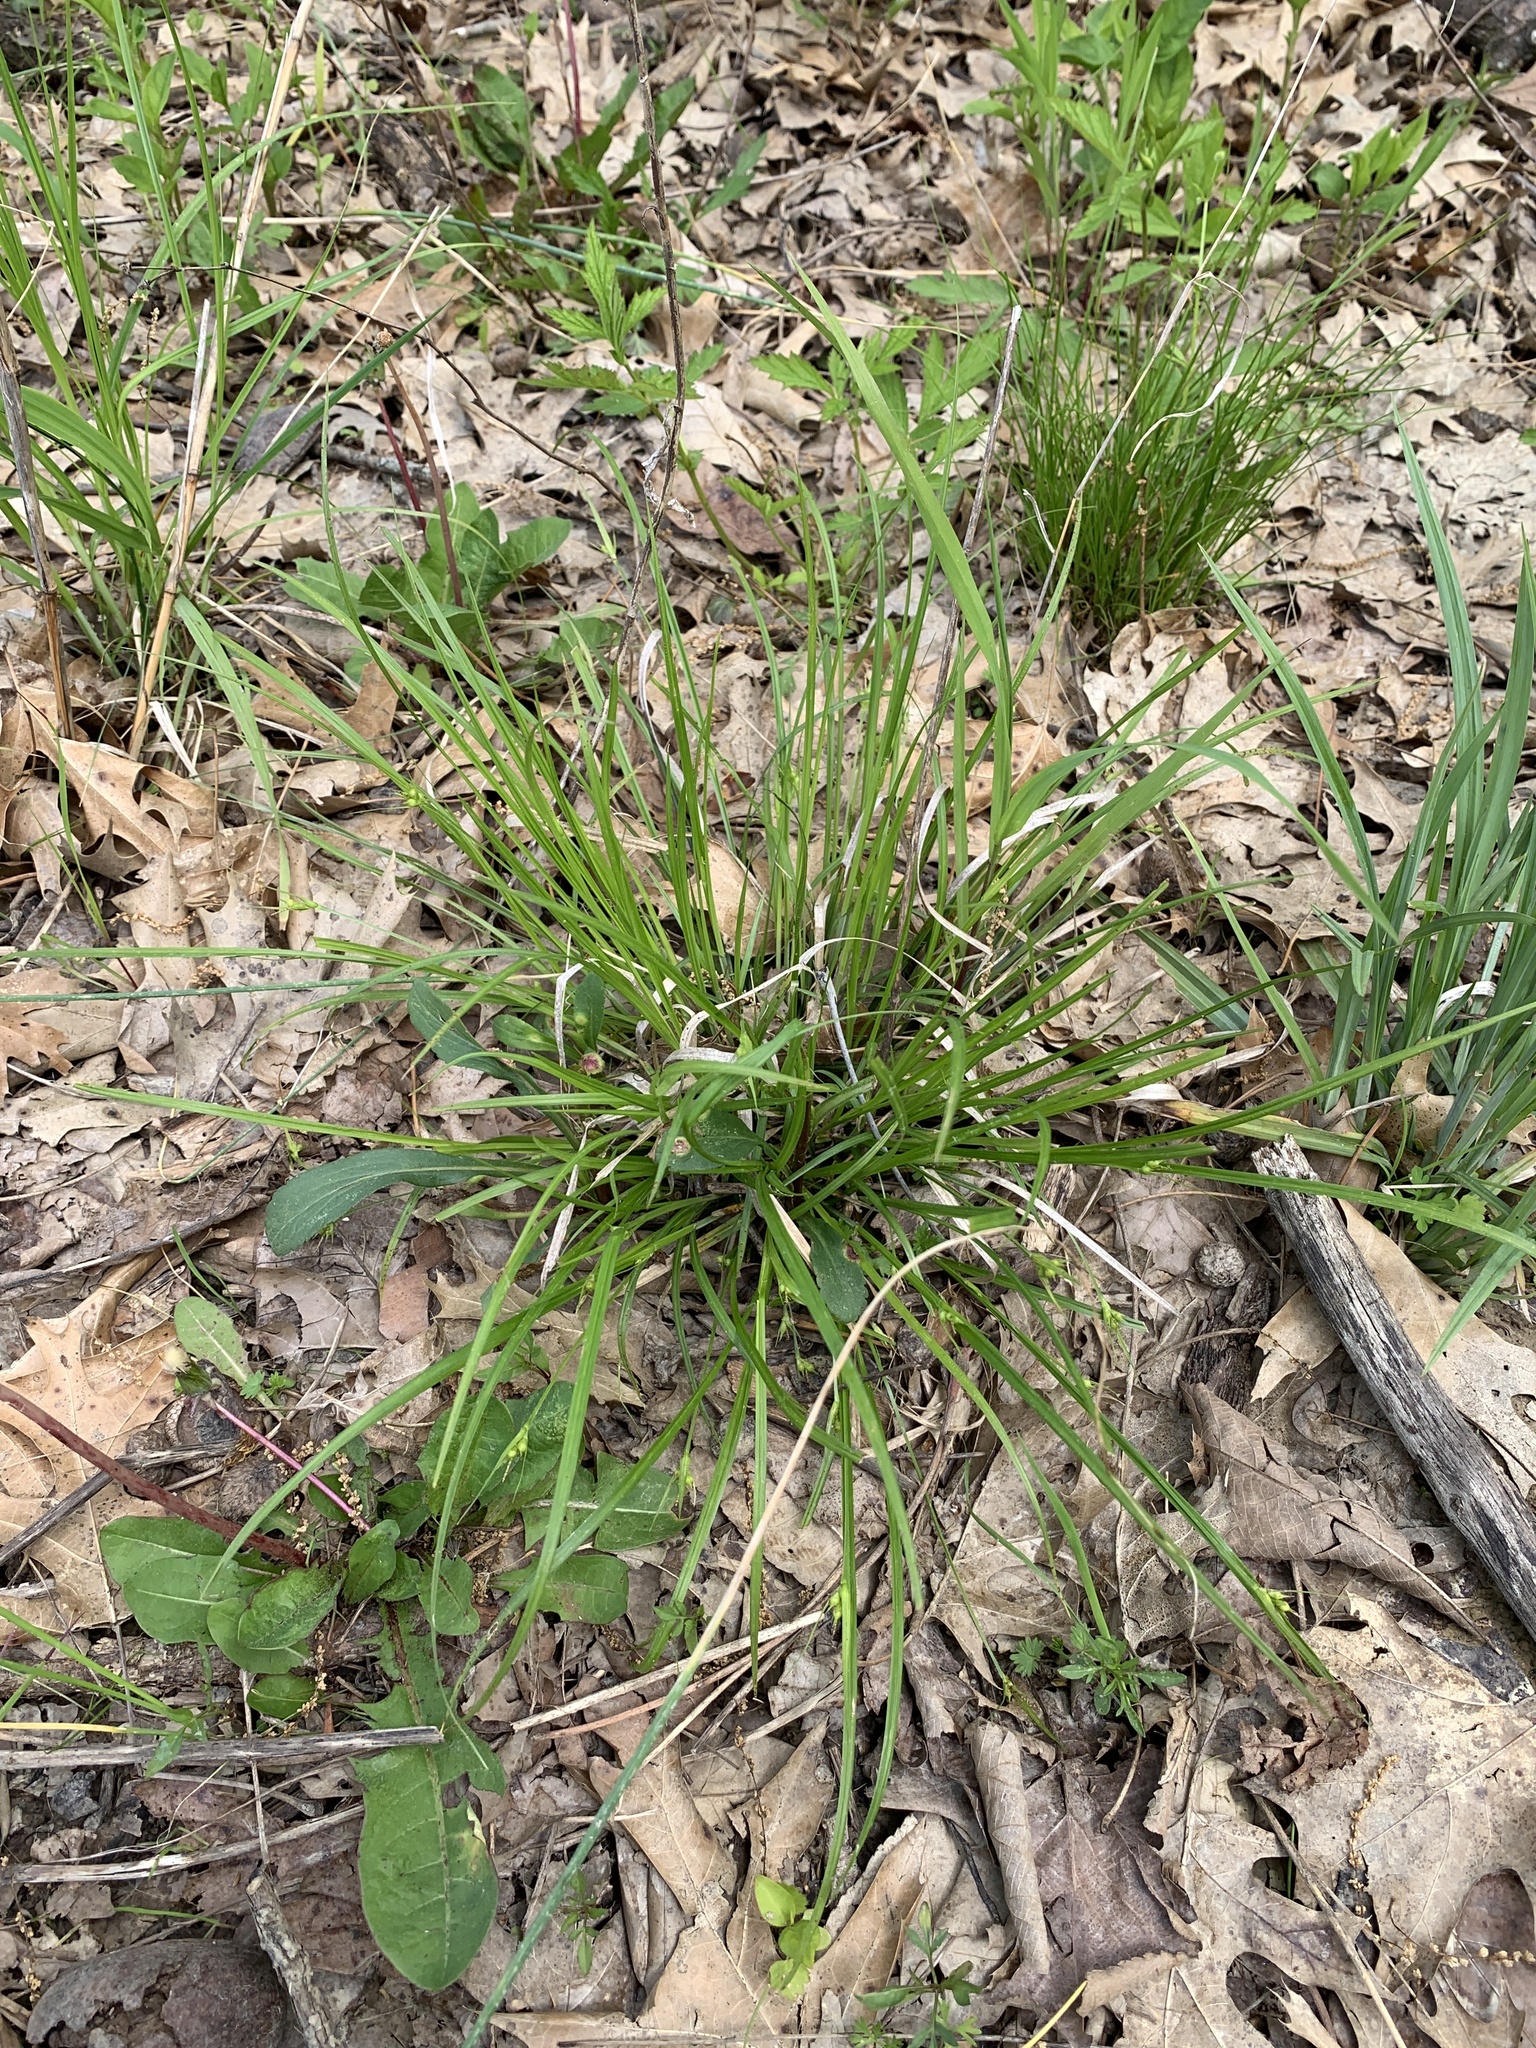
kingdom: Plantae
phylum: Tracheophyta
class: Liliopsida
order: Poales
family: Cyperaceae
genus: Carex
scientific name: Carex jamesii
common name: Grass sedge
